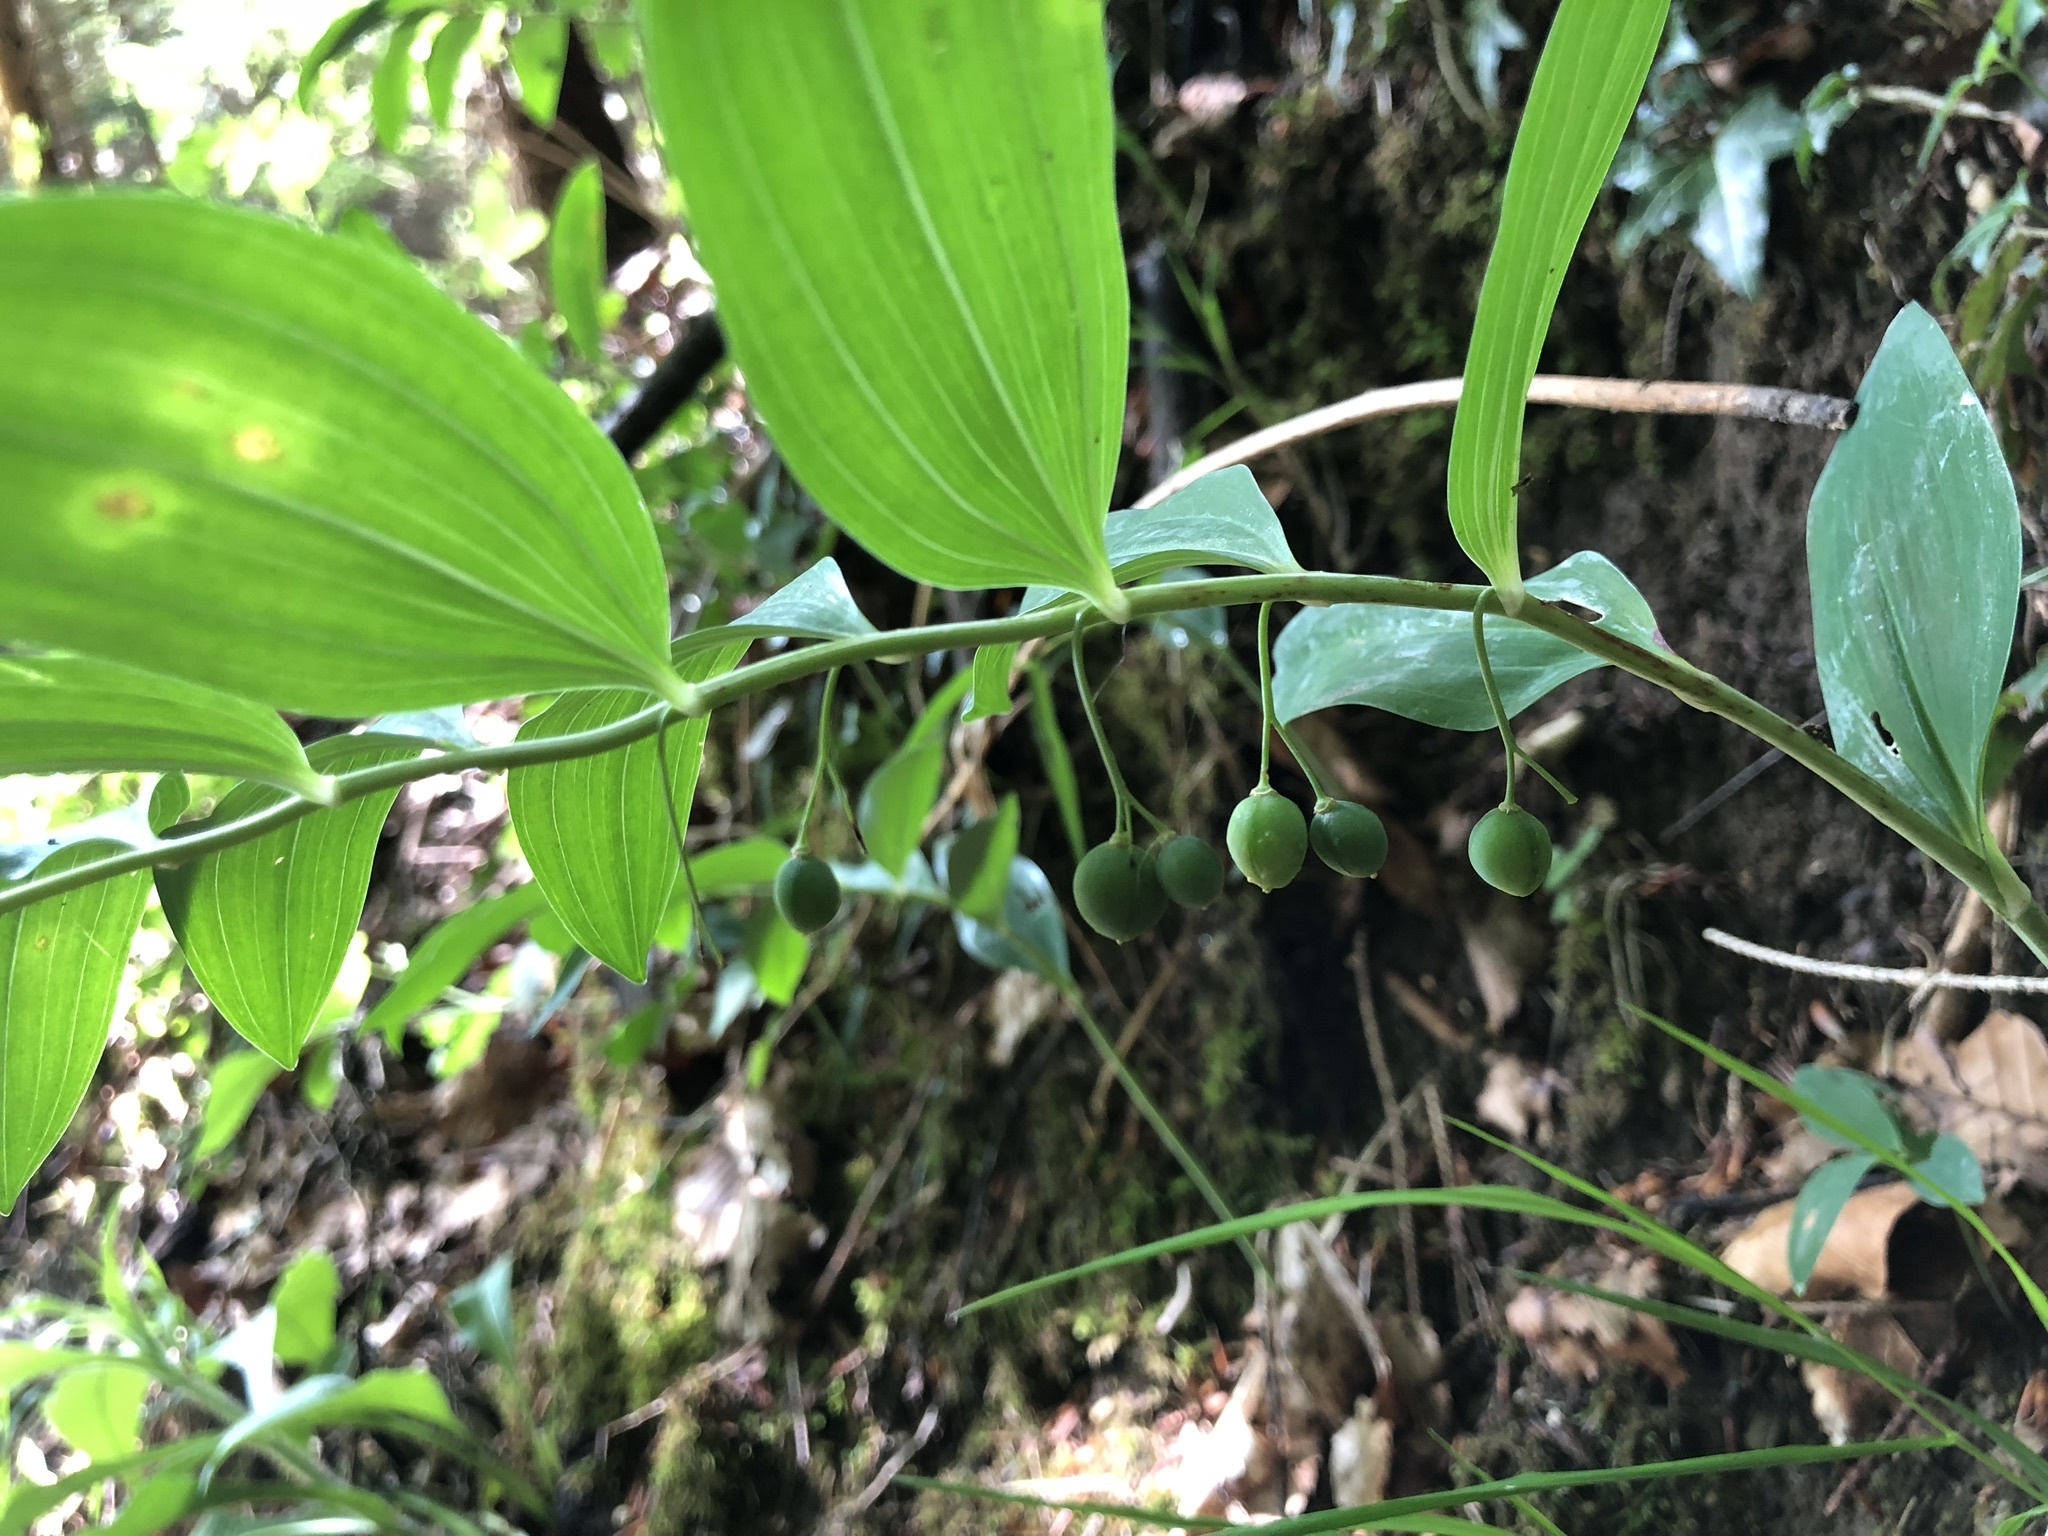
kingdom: Plantae
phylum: Tracheophyta
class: Liliopsida
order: Asparagales
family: Asparagaceae
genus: Polygonatum
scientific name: Polygonatum multiflorum
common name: Solomon's-seal
